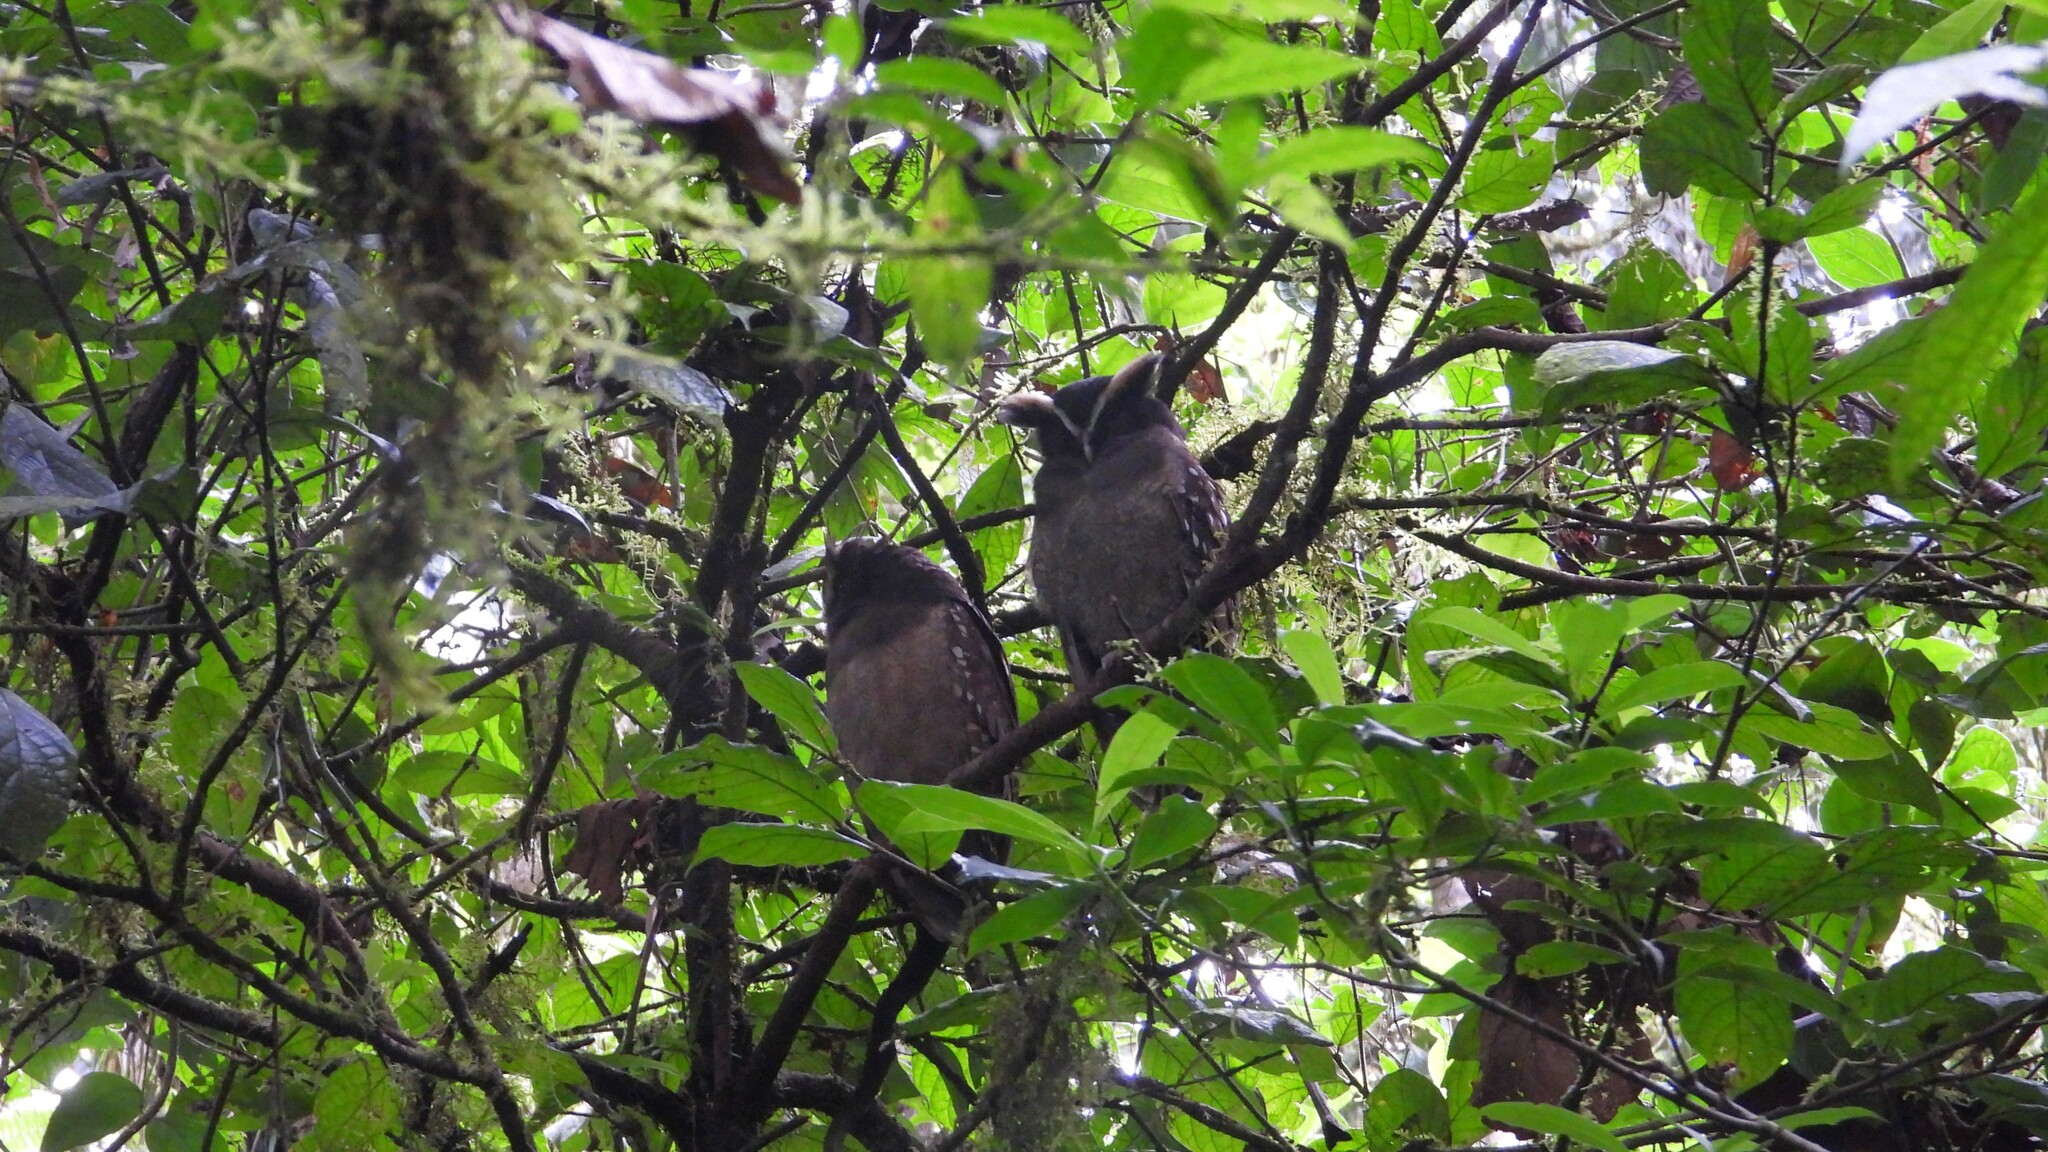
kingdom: Animalia
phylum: Chordata
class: Aves
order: Strigiformes
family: Strigidae
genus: Lophostrix
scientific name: Lophostrix cristata
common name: Crested owl
